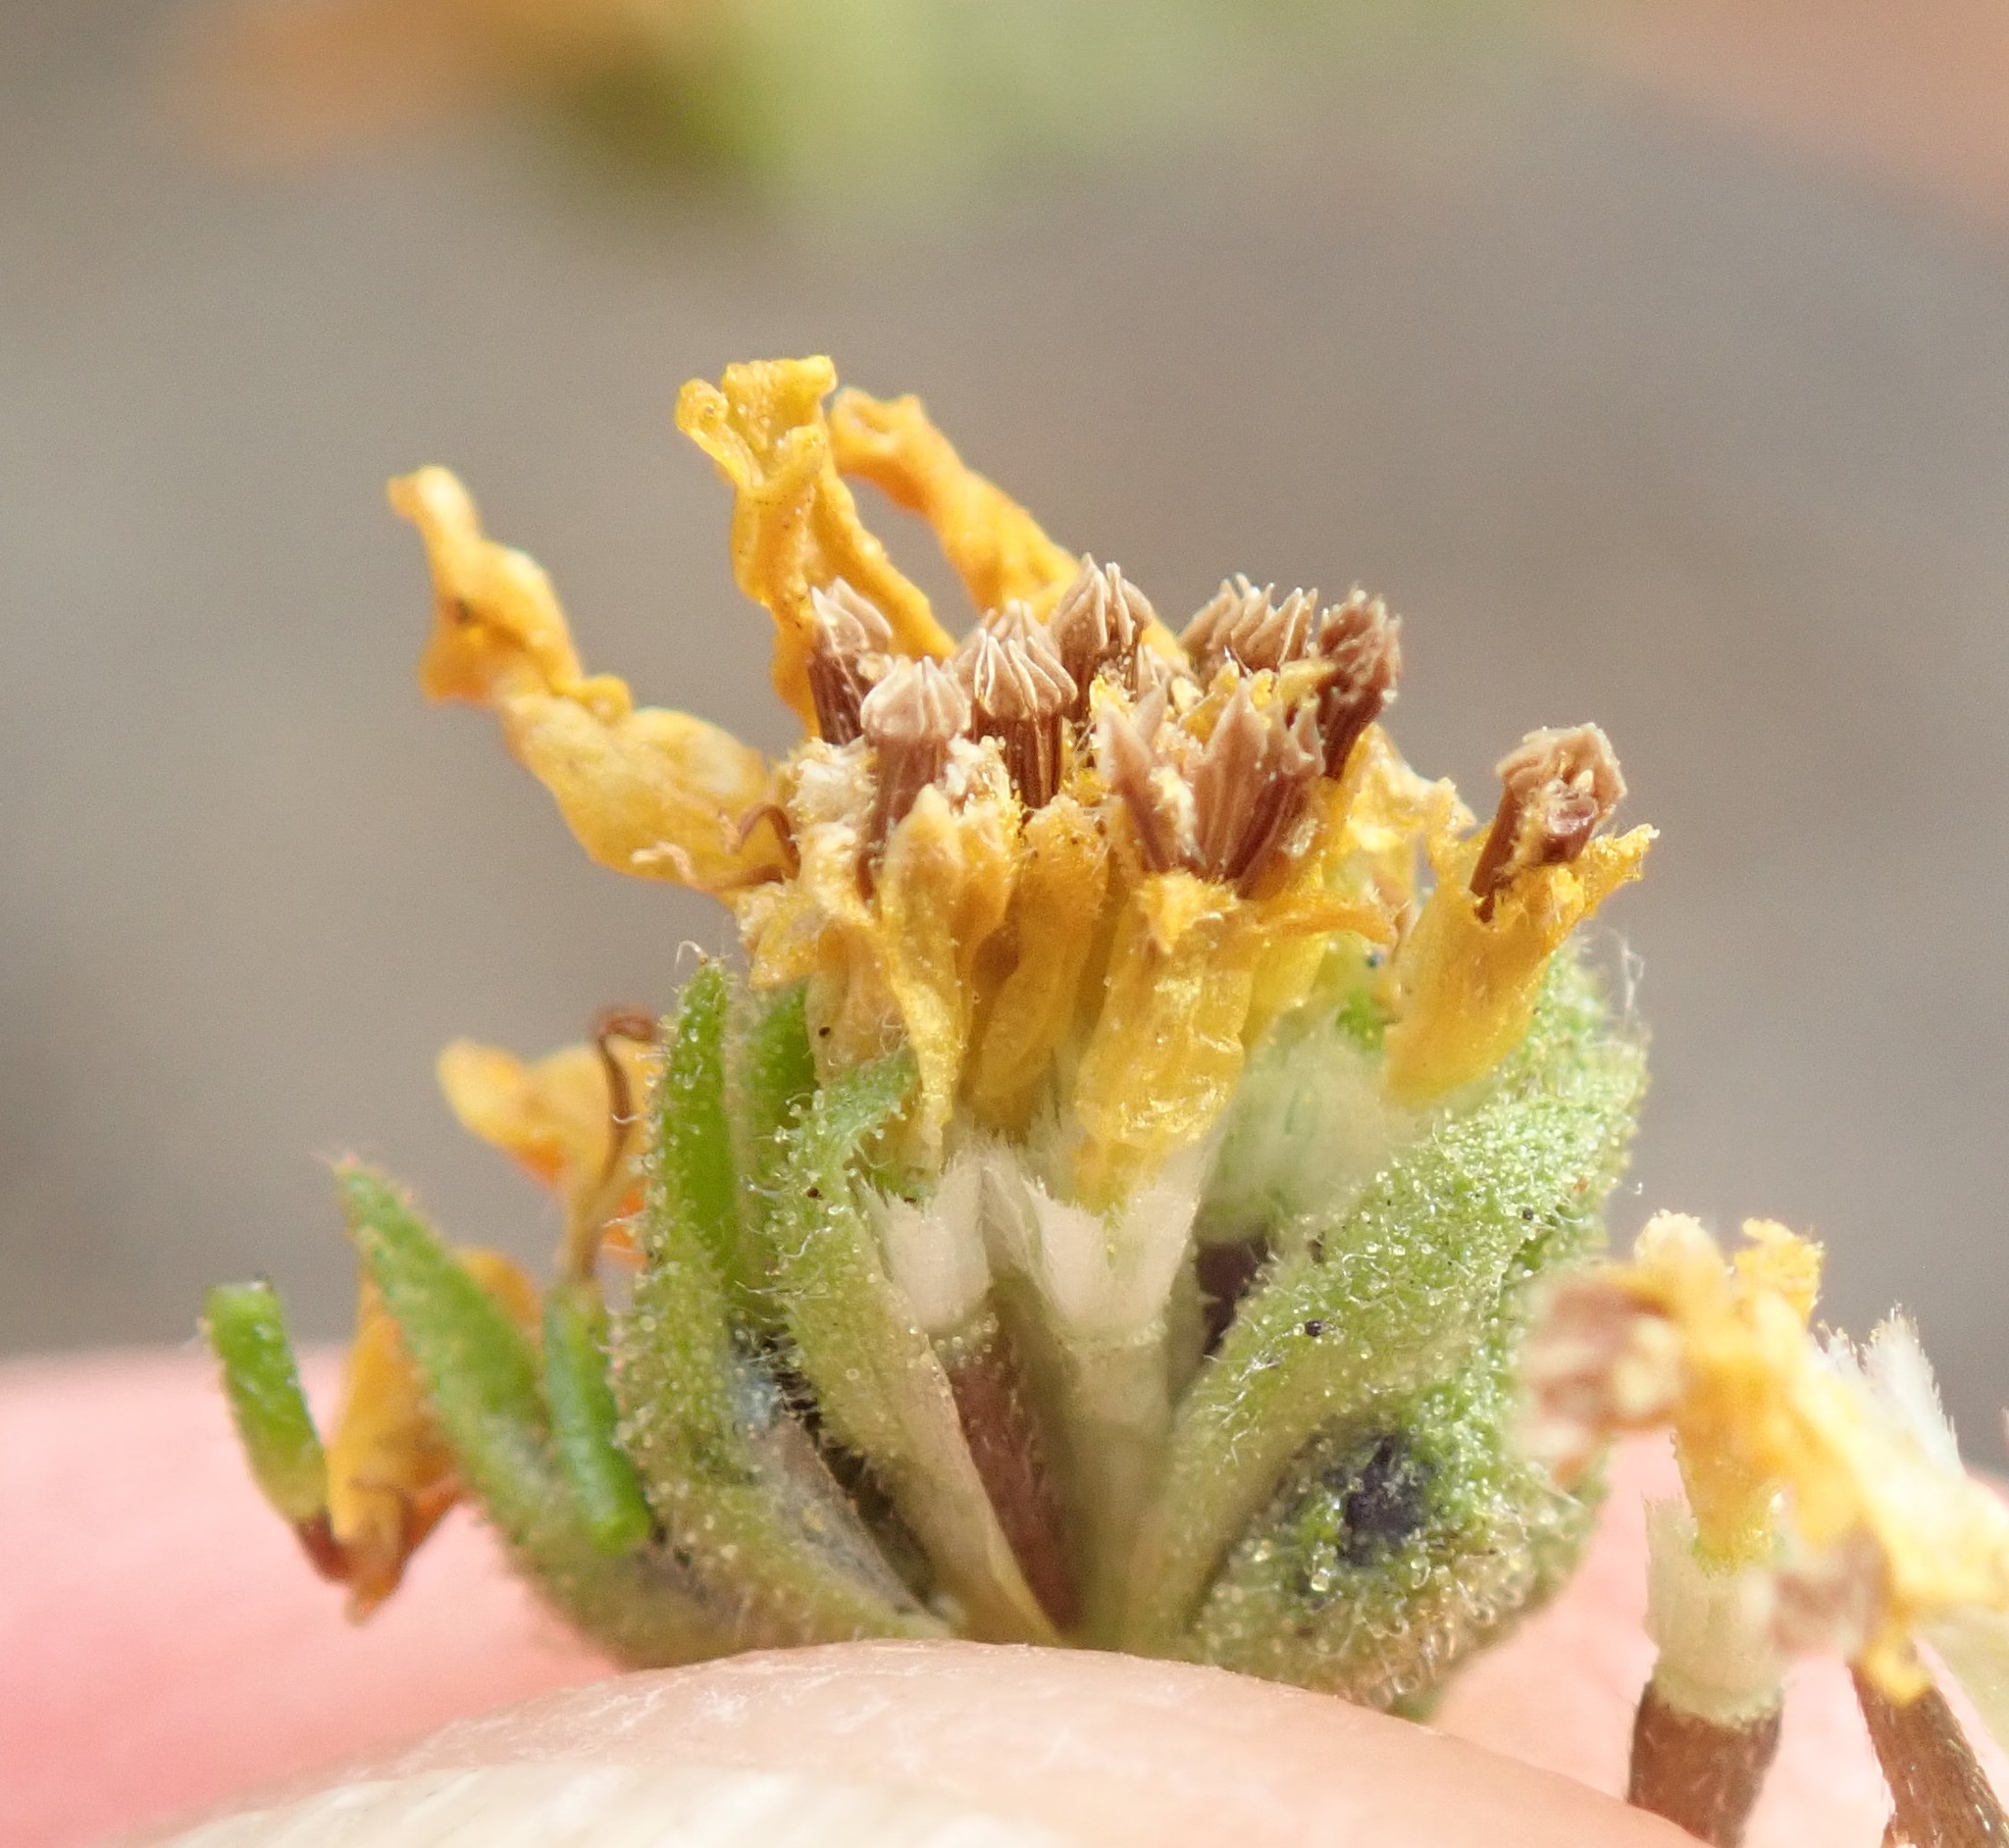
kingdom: Plantae
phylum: Tracheophyta
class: Magnoliopsida
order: Asterales
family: Asteraceae
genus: Deinandra
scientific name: Deinandra paniculata
